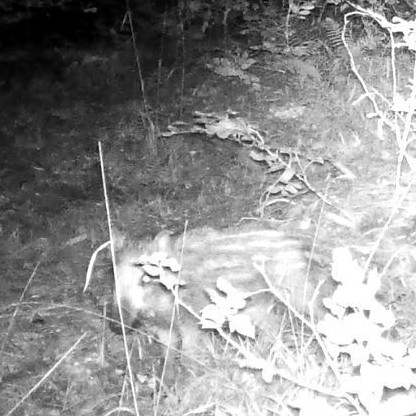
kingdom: Animalia
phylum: Chordata
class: Mammalia
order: Artiodactyla
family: Suidae
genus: Sus
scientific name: Sus scrofa
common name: Wild boar
